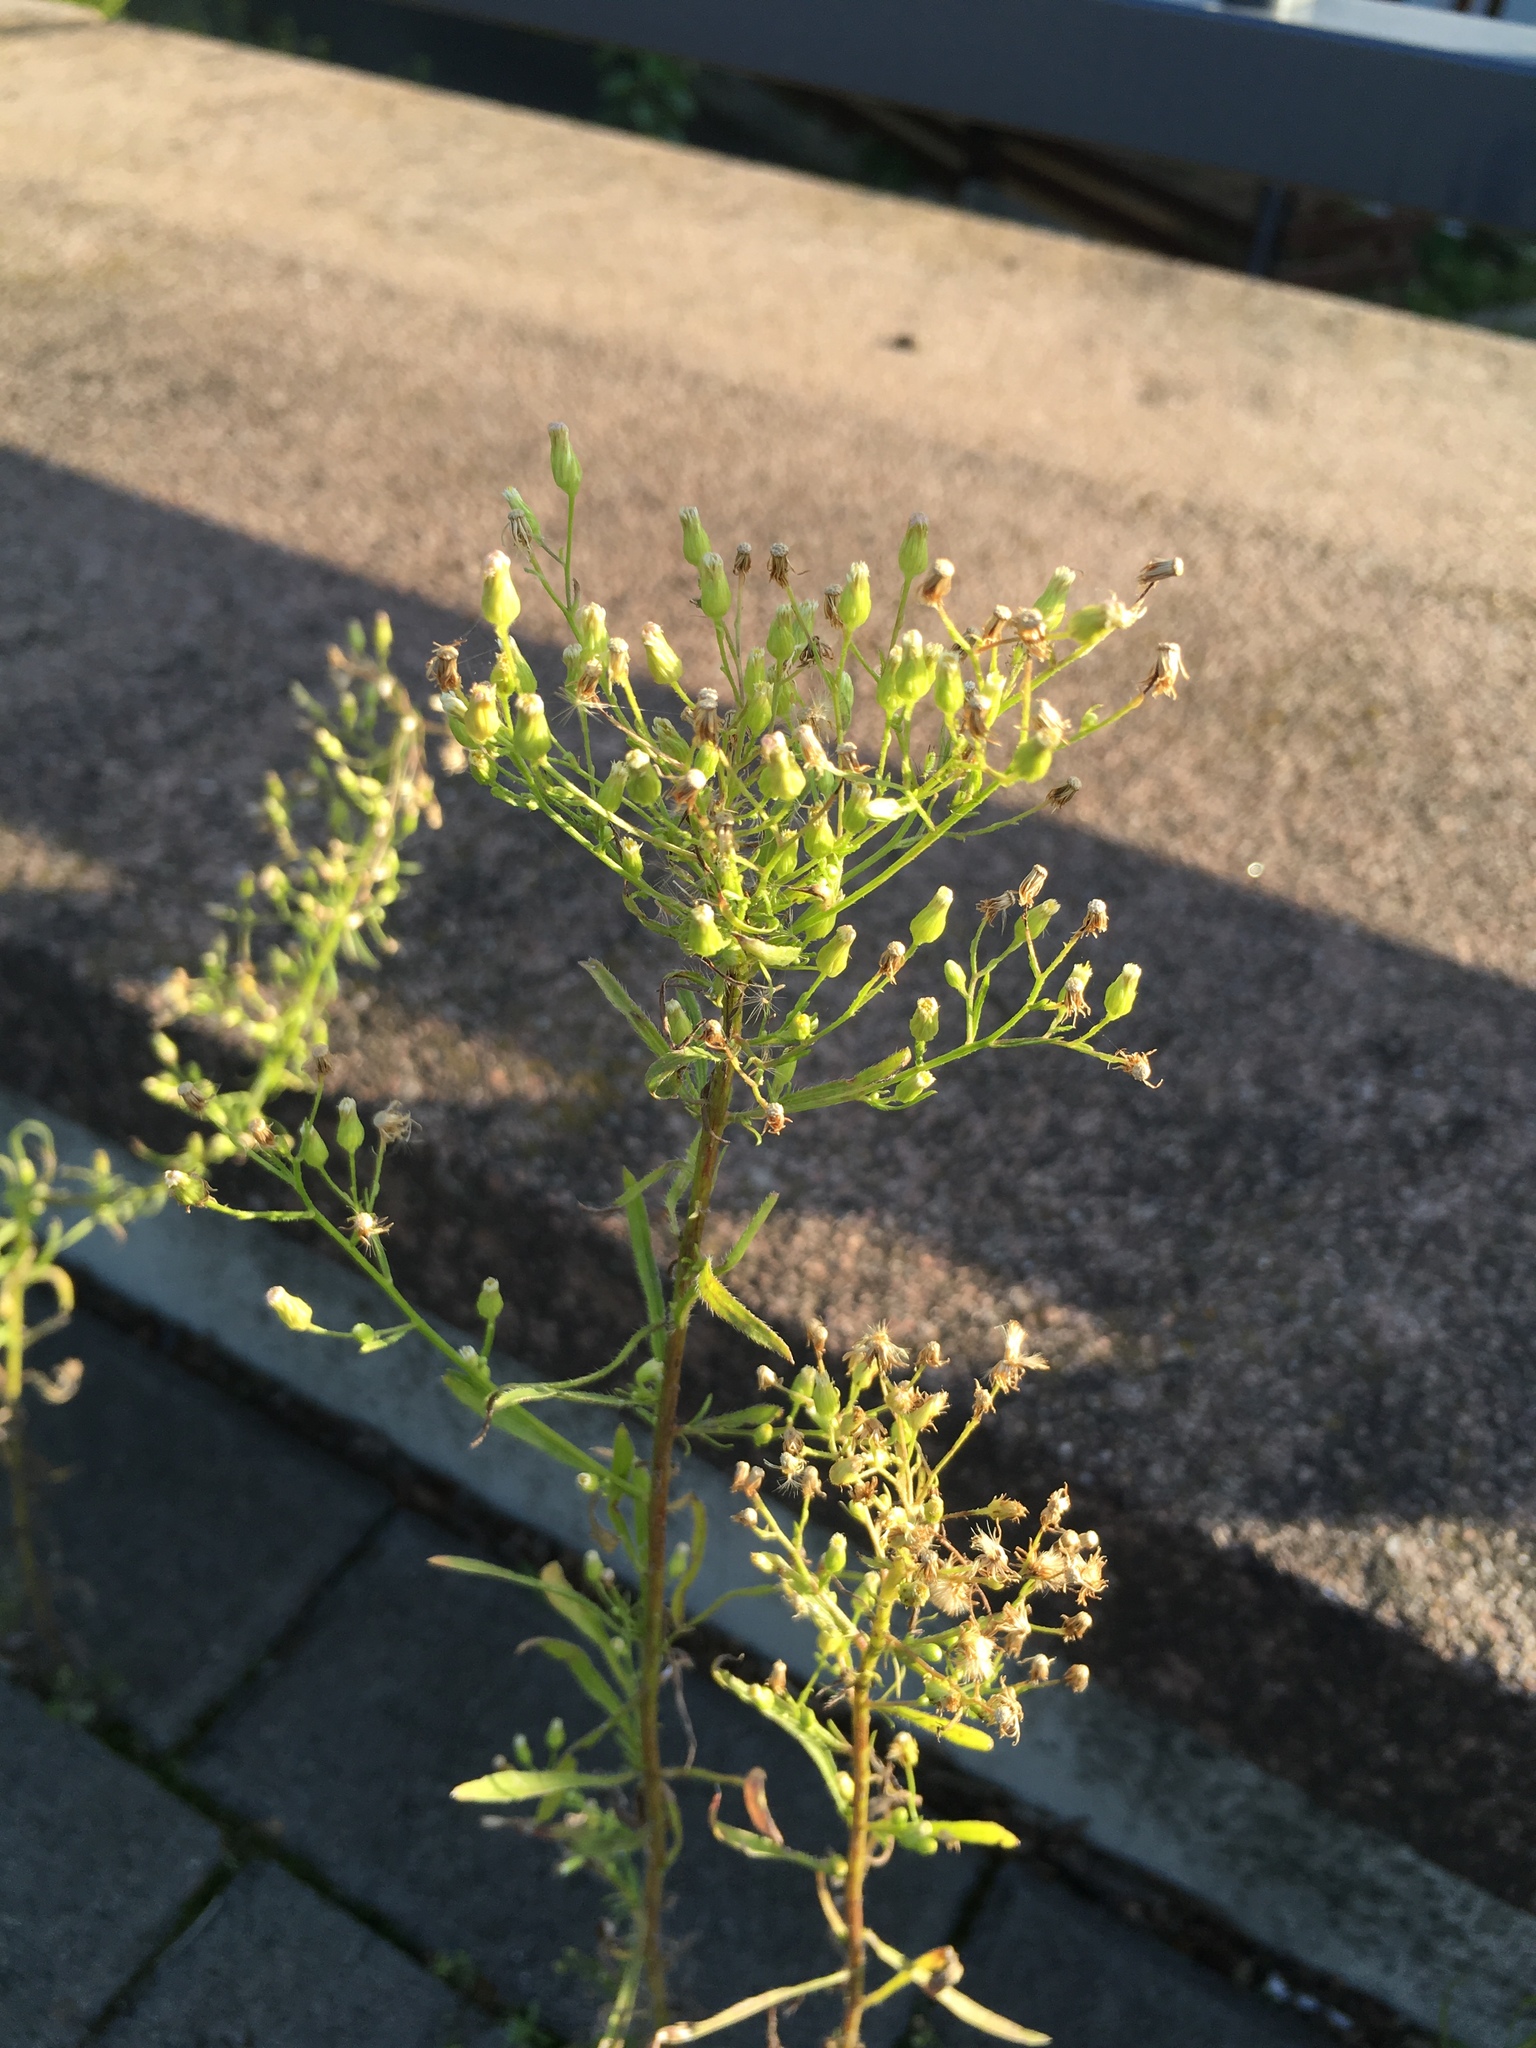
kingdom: Plantae
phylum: Tracheophyta
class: Magnoliopsida
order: Asterales
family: Asteraceae
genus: Erigeron
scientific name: Erigeron canadensis
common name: Canadian fleabane
